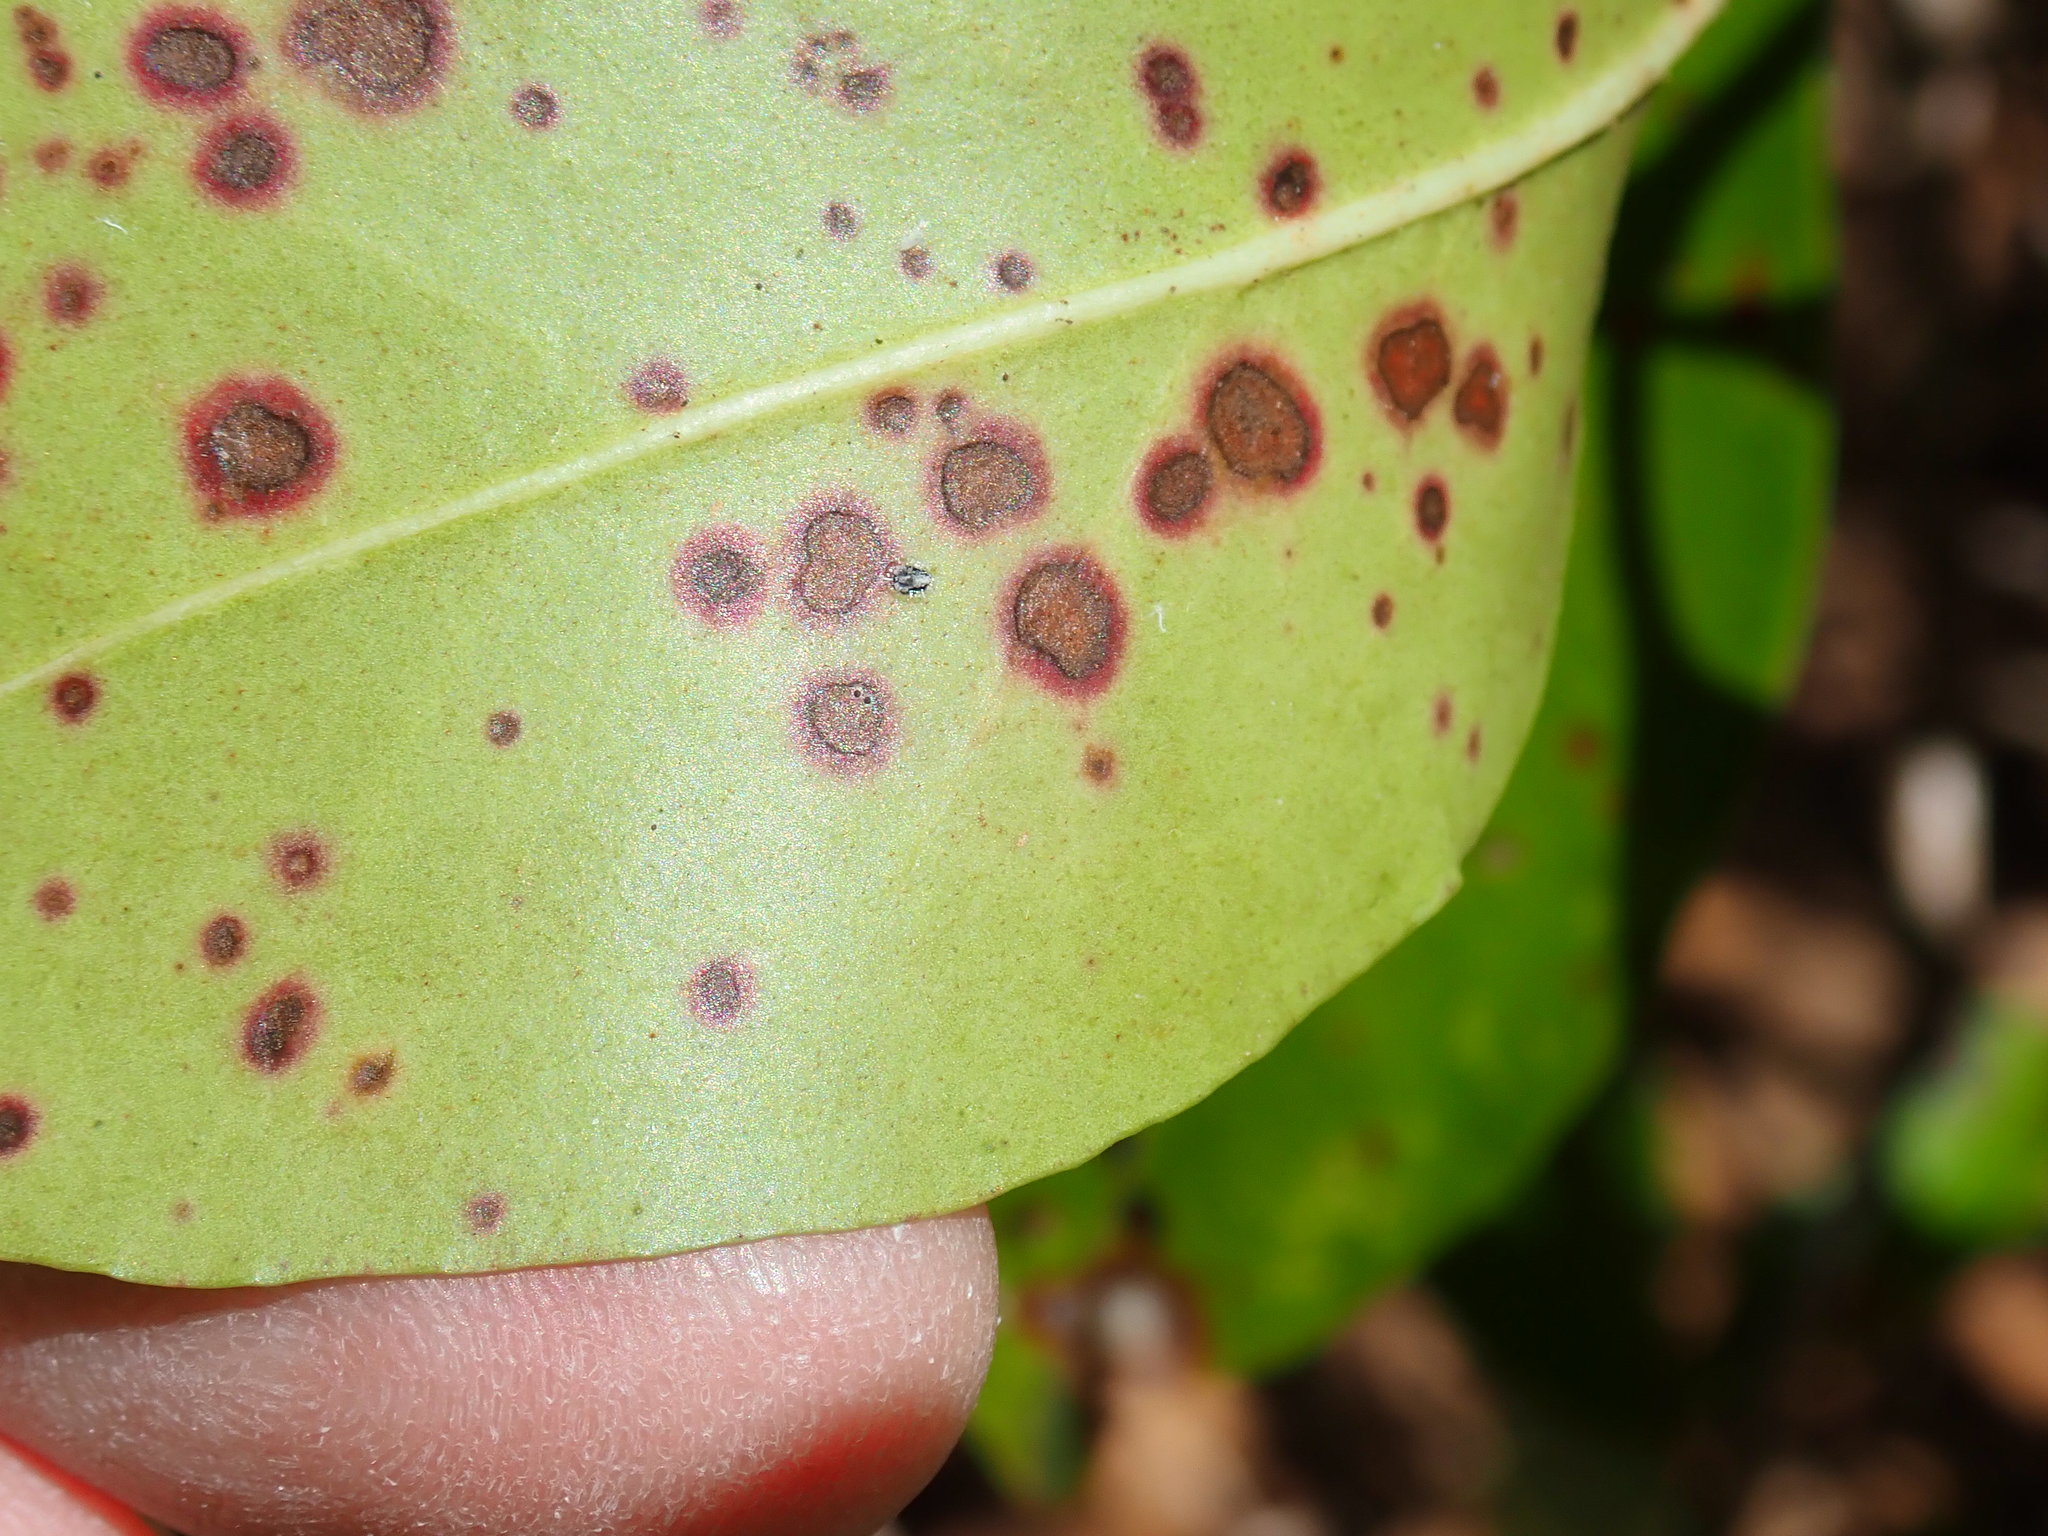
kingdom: Fungi
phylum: Ascomycota
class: Dothideomycetes
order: Mycosphaerellales
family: Mycosphaerellaceae
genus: Mycosphaerella
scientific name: Mycosphaerella colorata
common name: Mountain laurel leaf spot
